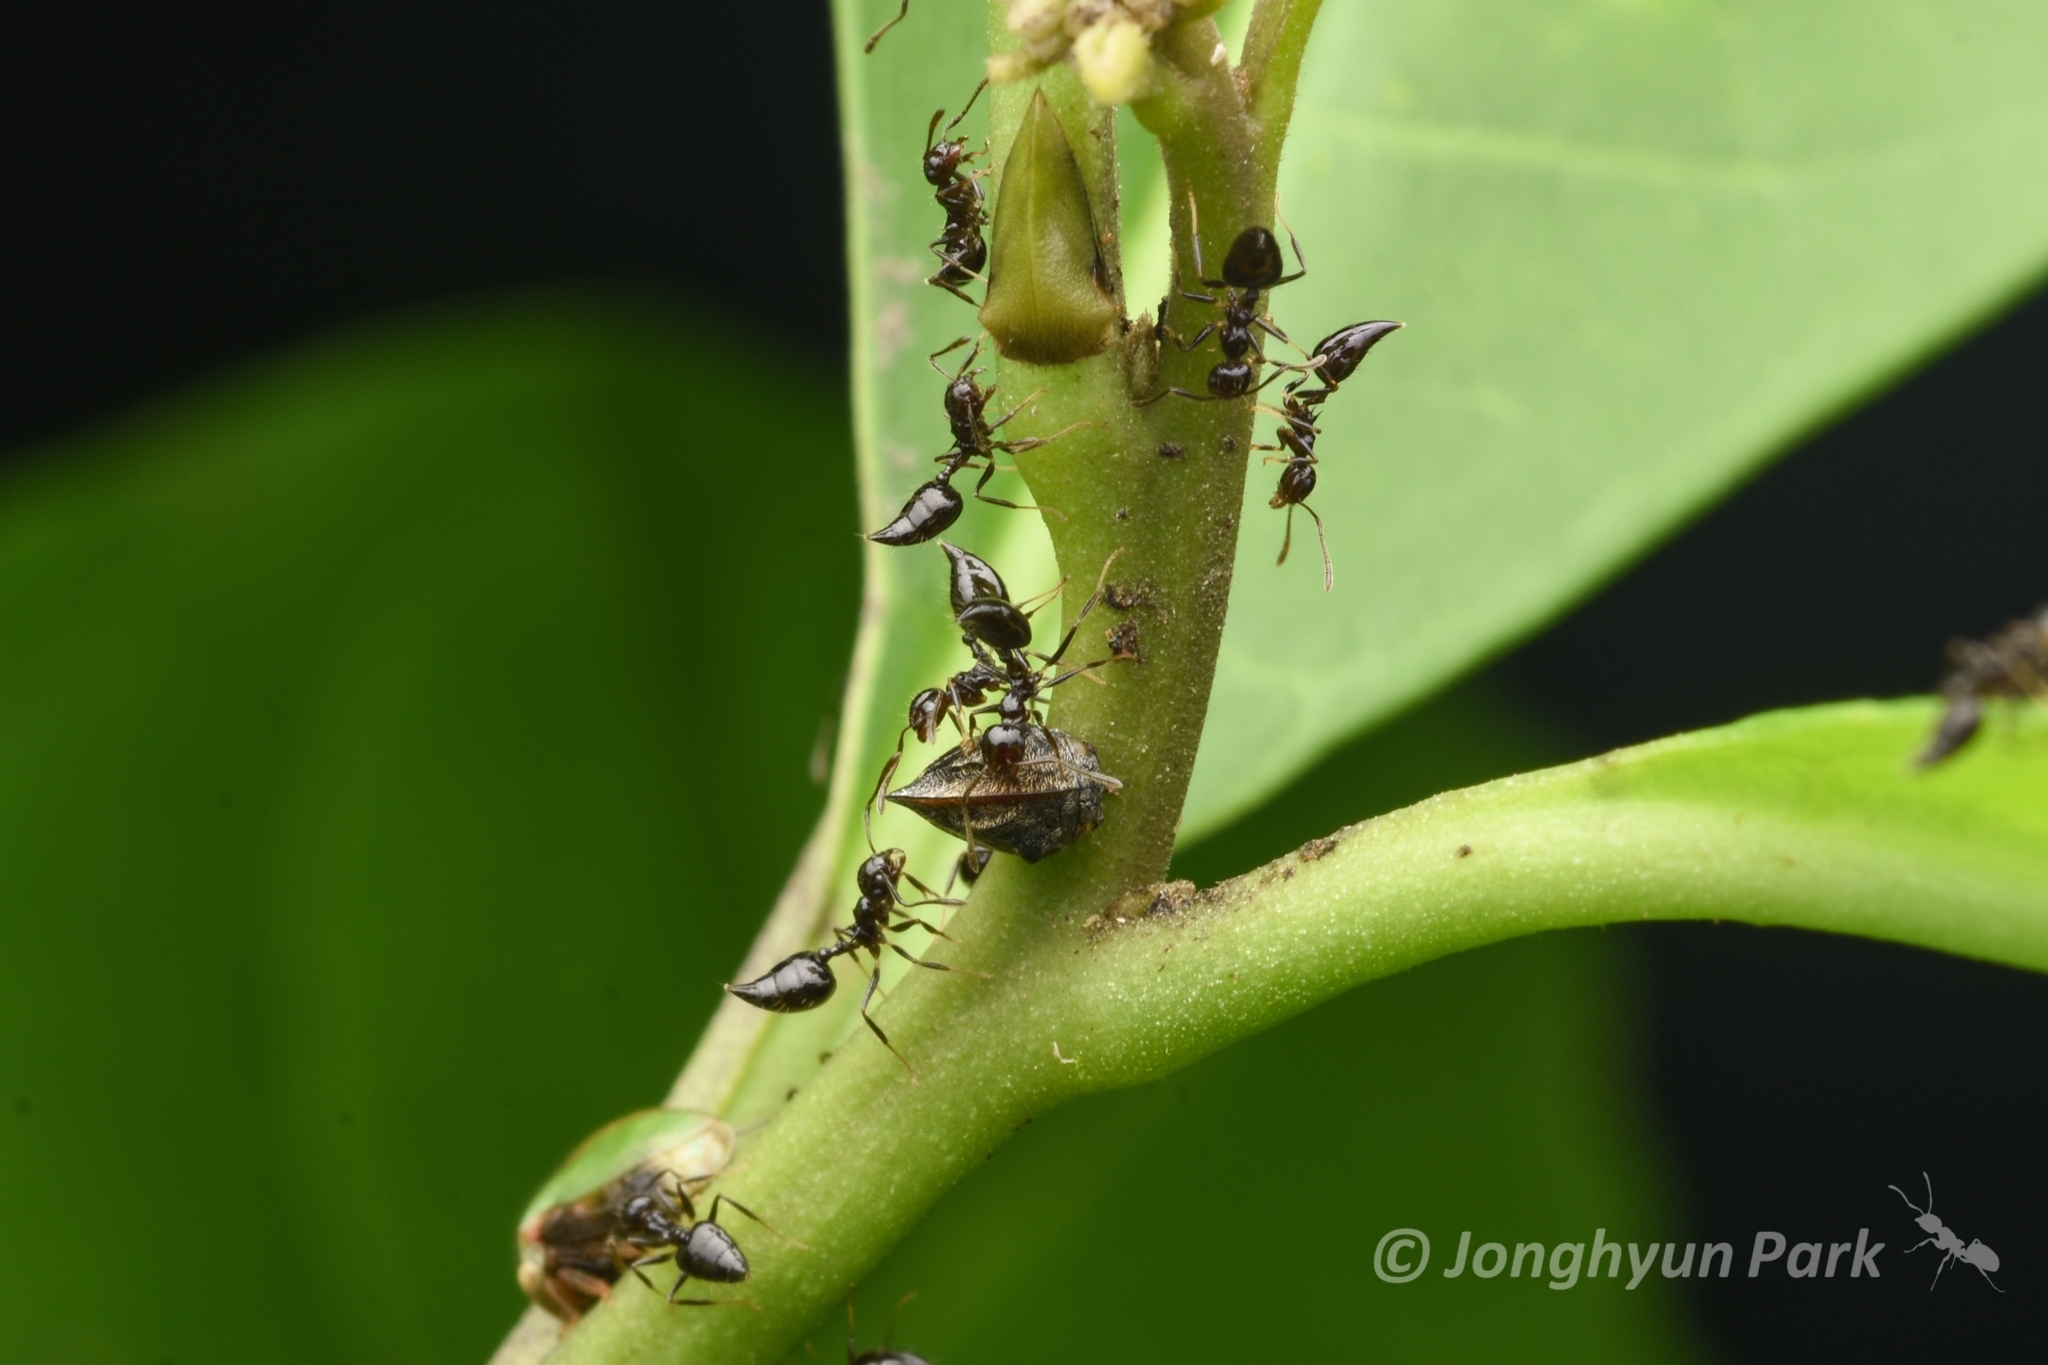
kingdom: Animalia
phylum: Arthropoda
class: Insecta
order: Hymenoptera
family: Formicidae
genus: Crematogaster
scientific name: Crematogaster nigropilosa
